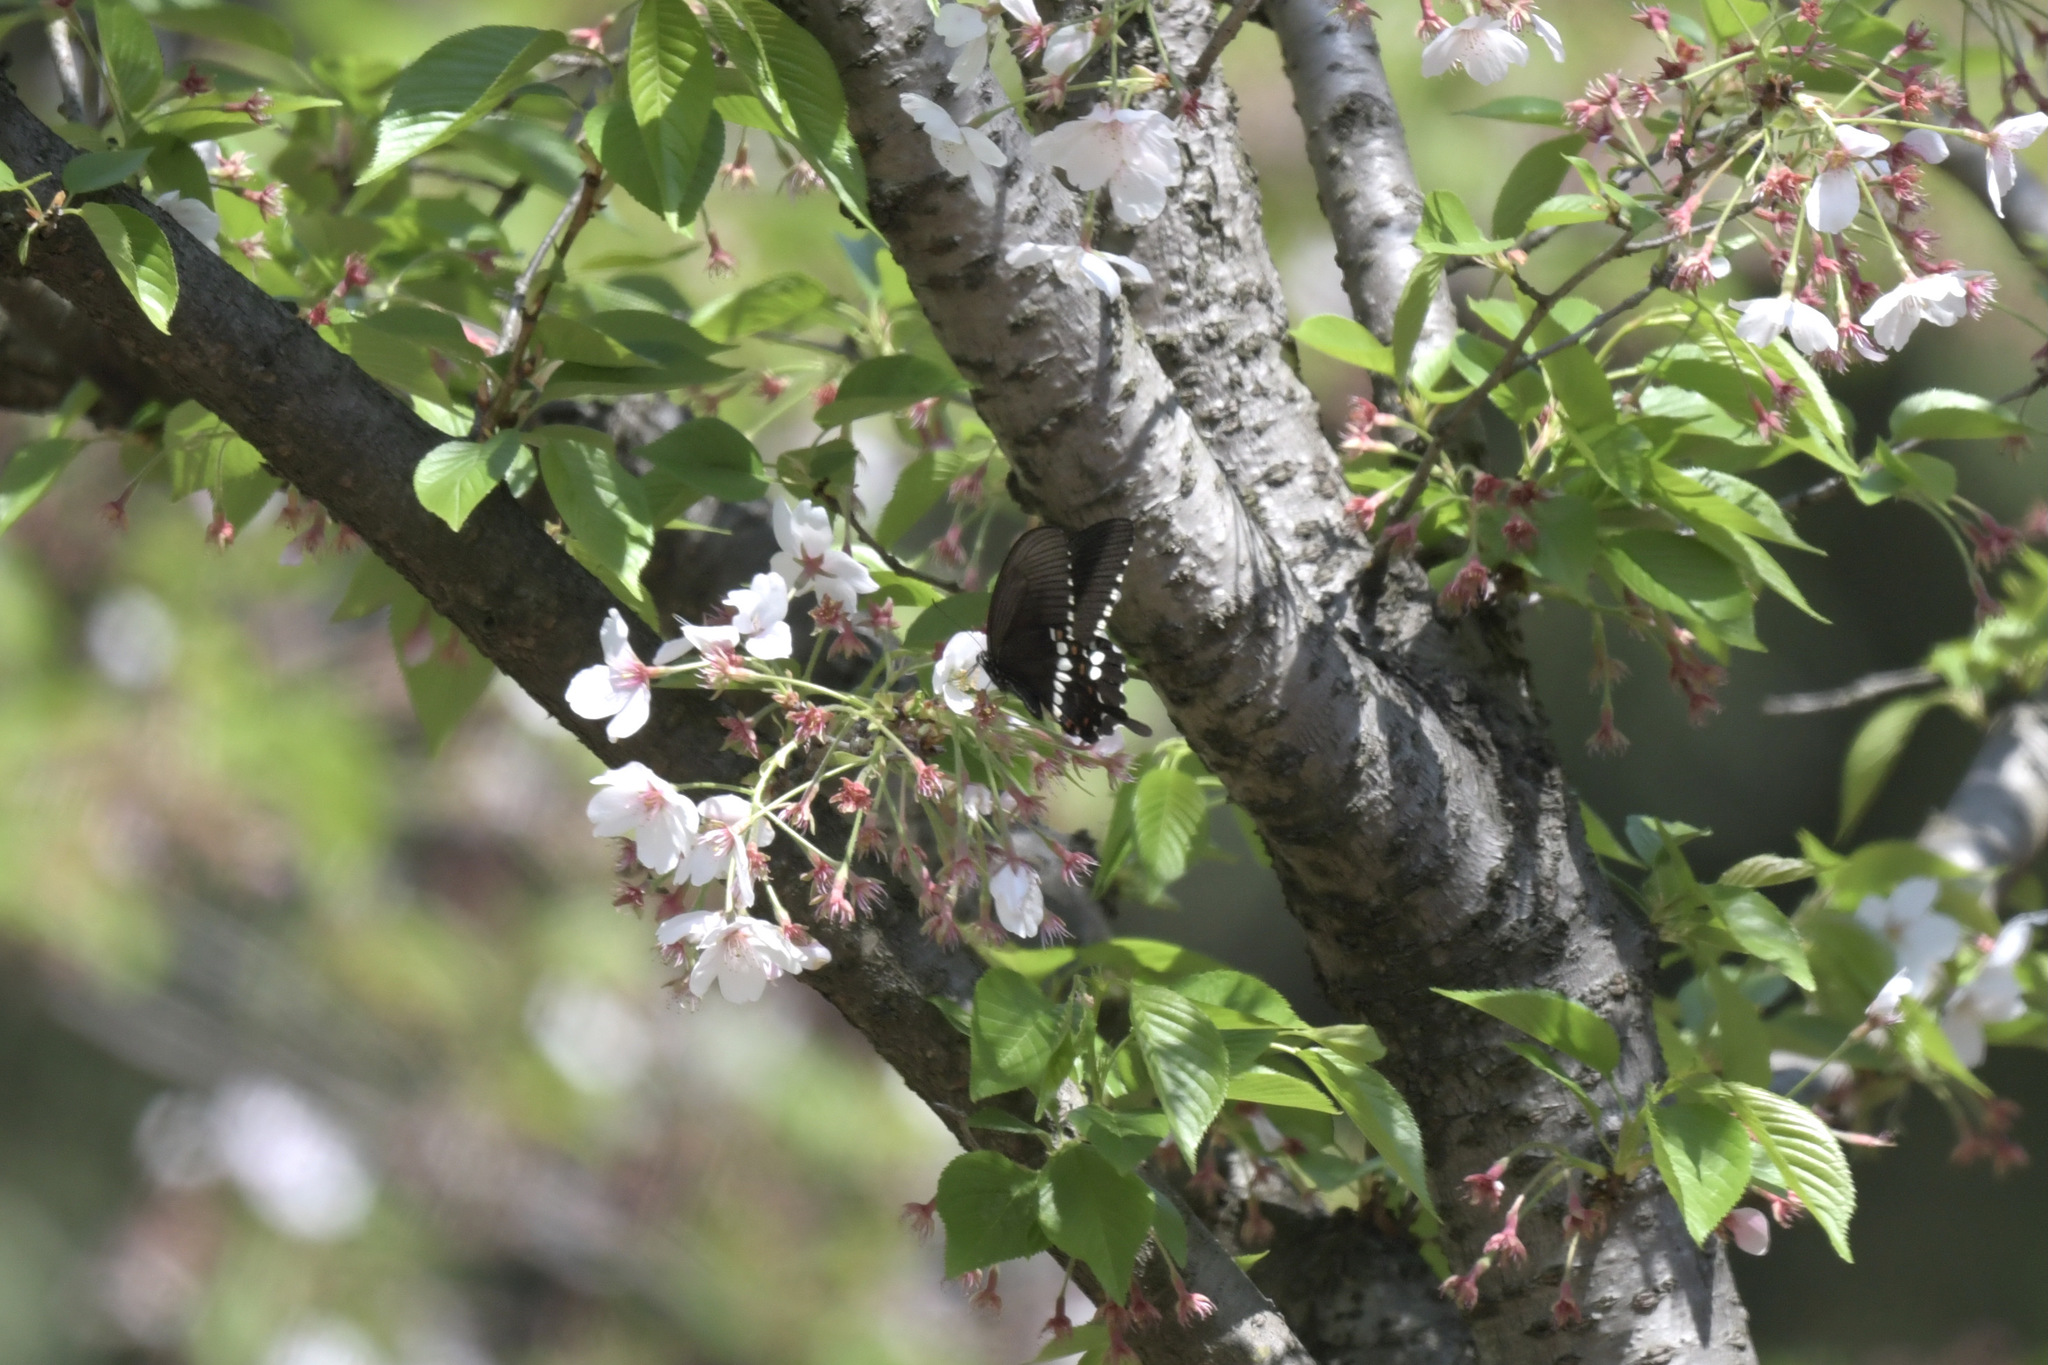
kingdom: Animalia
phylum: Arthropoda
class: Insecta
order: Lepidoptera
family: Papilionidae
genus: Papilio
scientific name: Papilio polytes
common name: Common mormon
